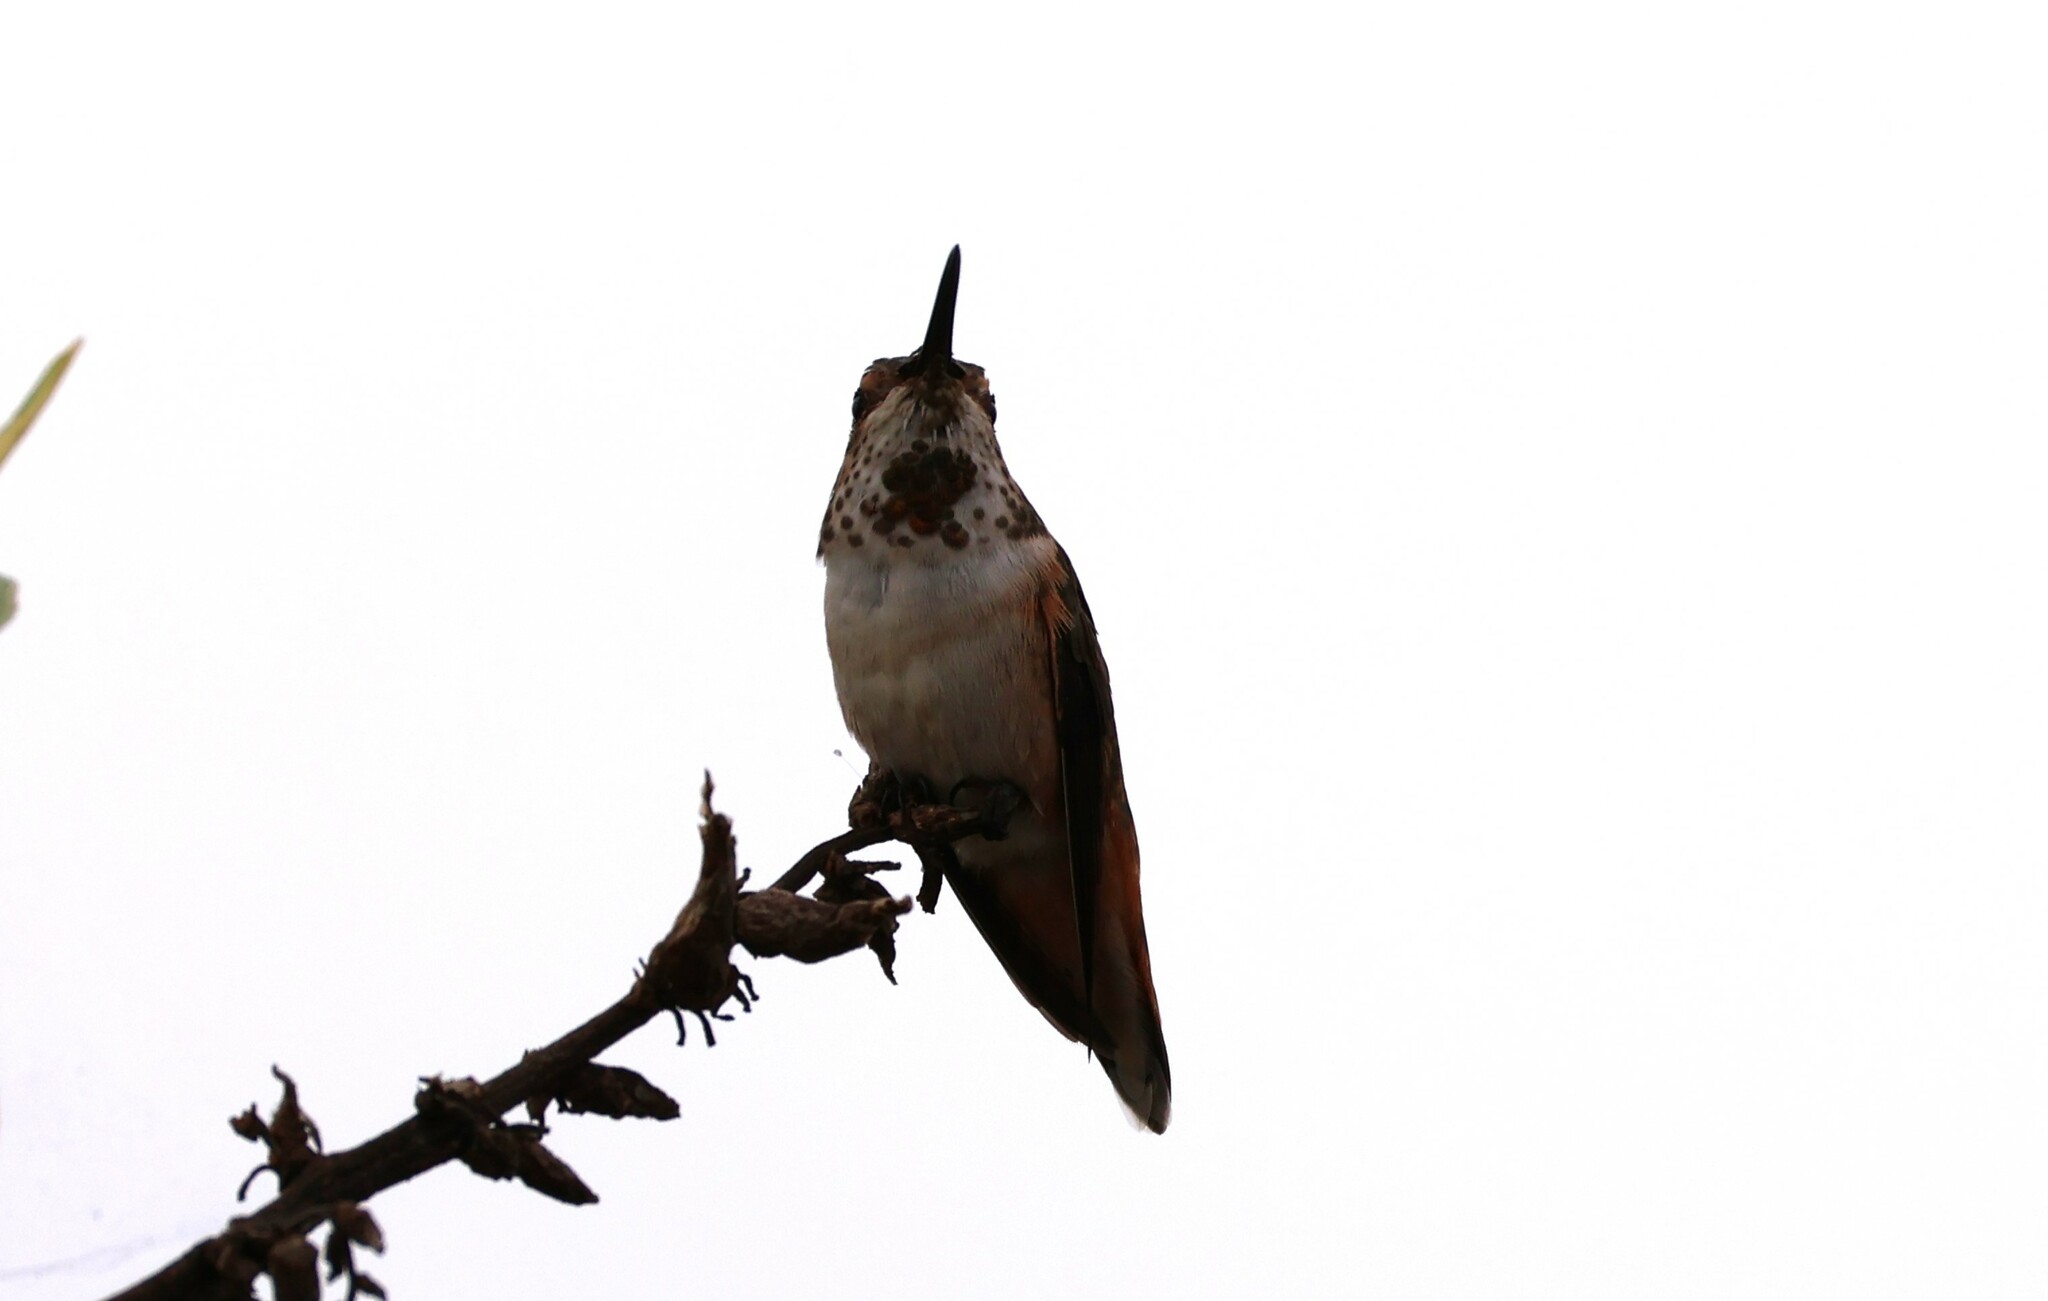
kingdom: Animalia
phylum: Chordata
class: Aves
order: Apodiformes
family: Trochilidae
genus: Selasphorus
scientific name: Selasphorus
